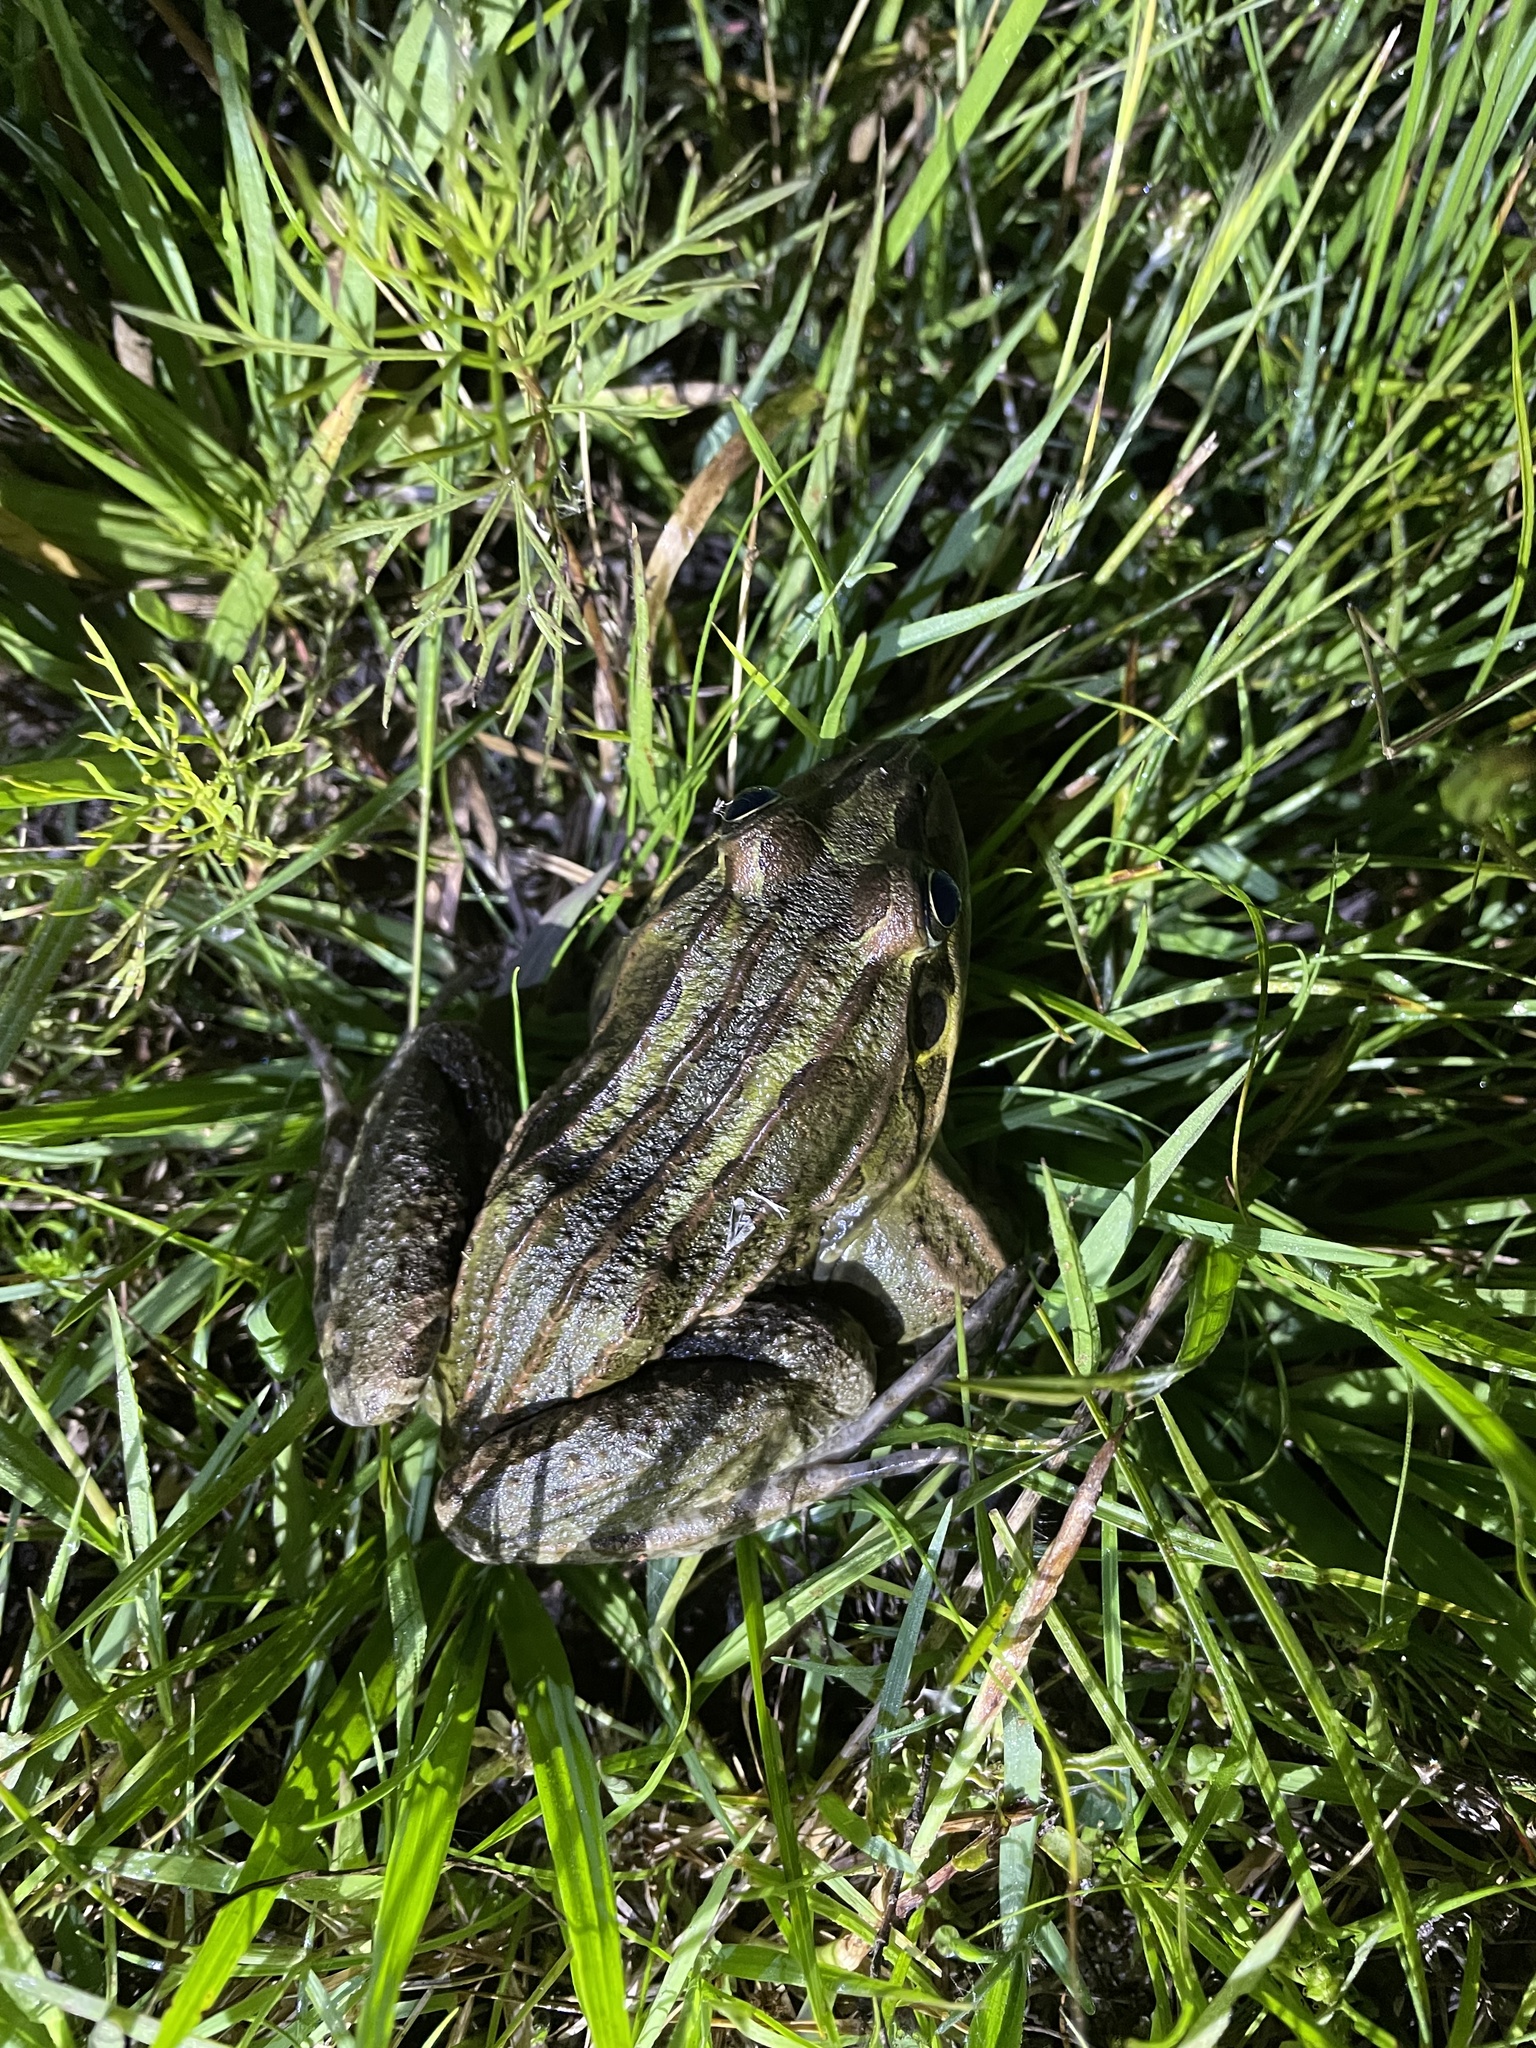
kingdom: Animalia
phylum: Chordata
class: Amphibia
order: Anura
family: Leptodactylidae
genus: Leptodactylus
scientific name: Leptodactylus luctator
